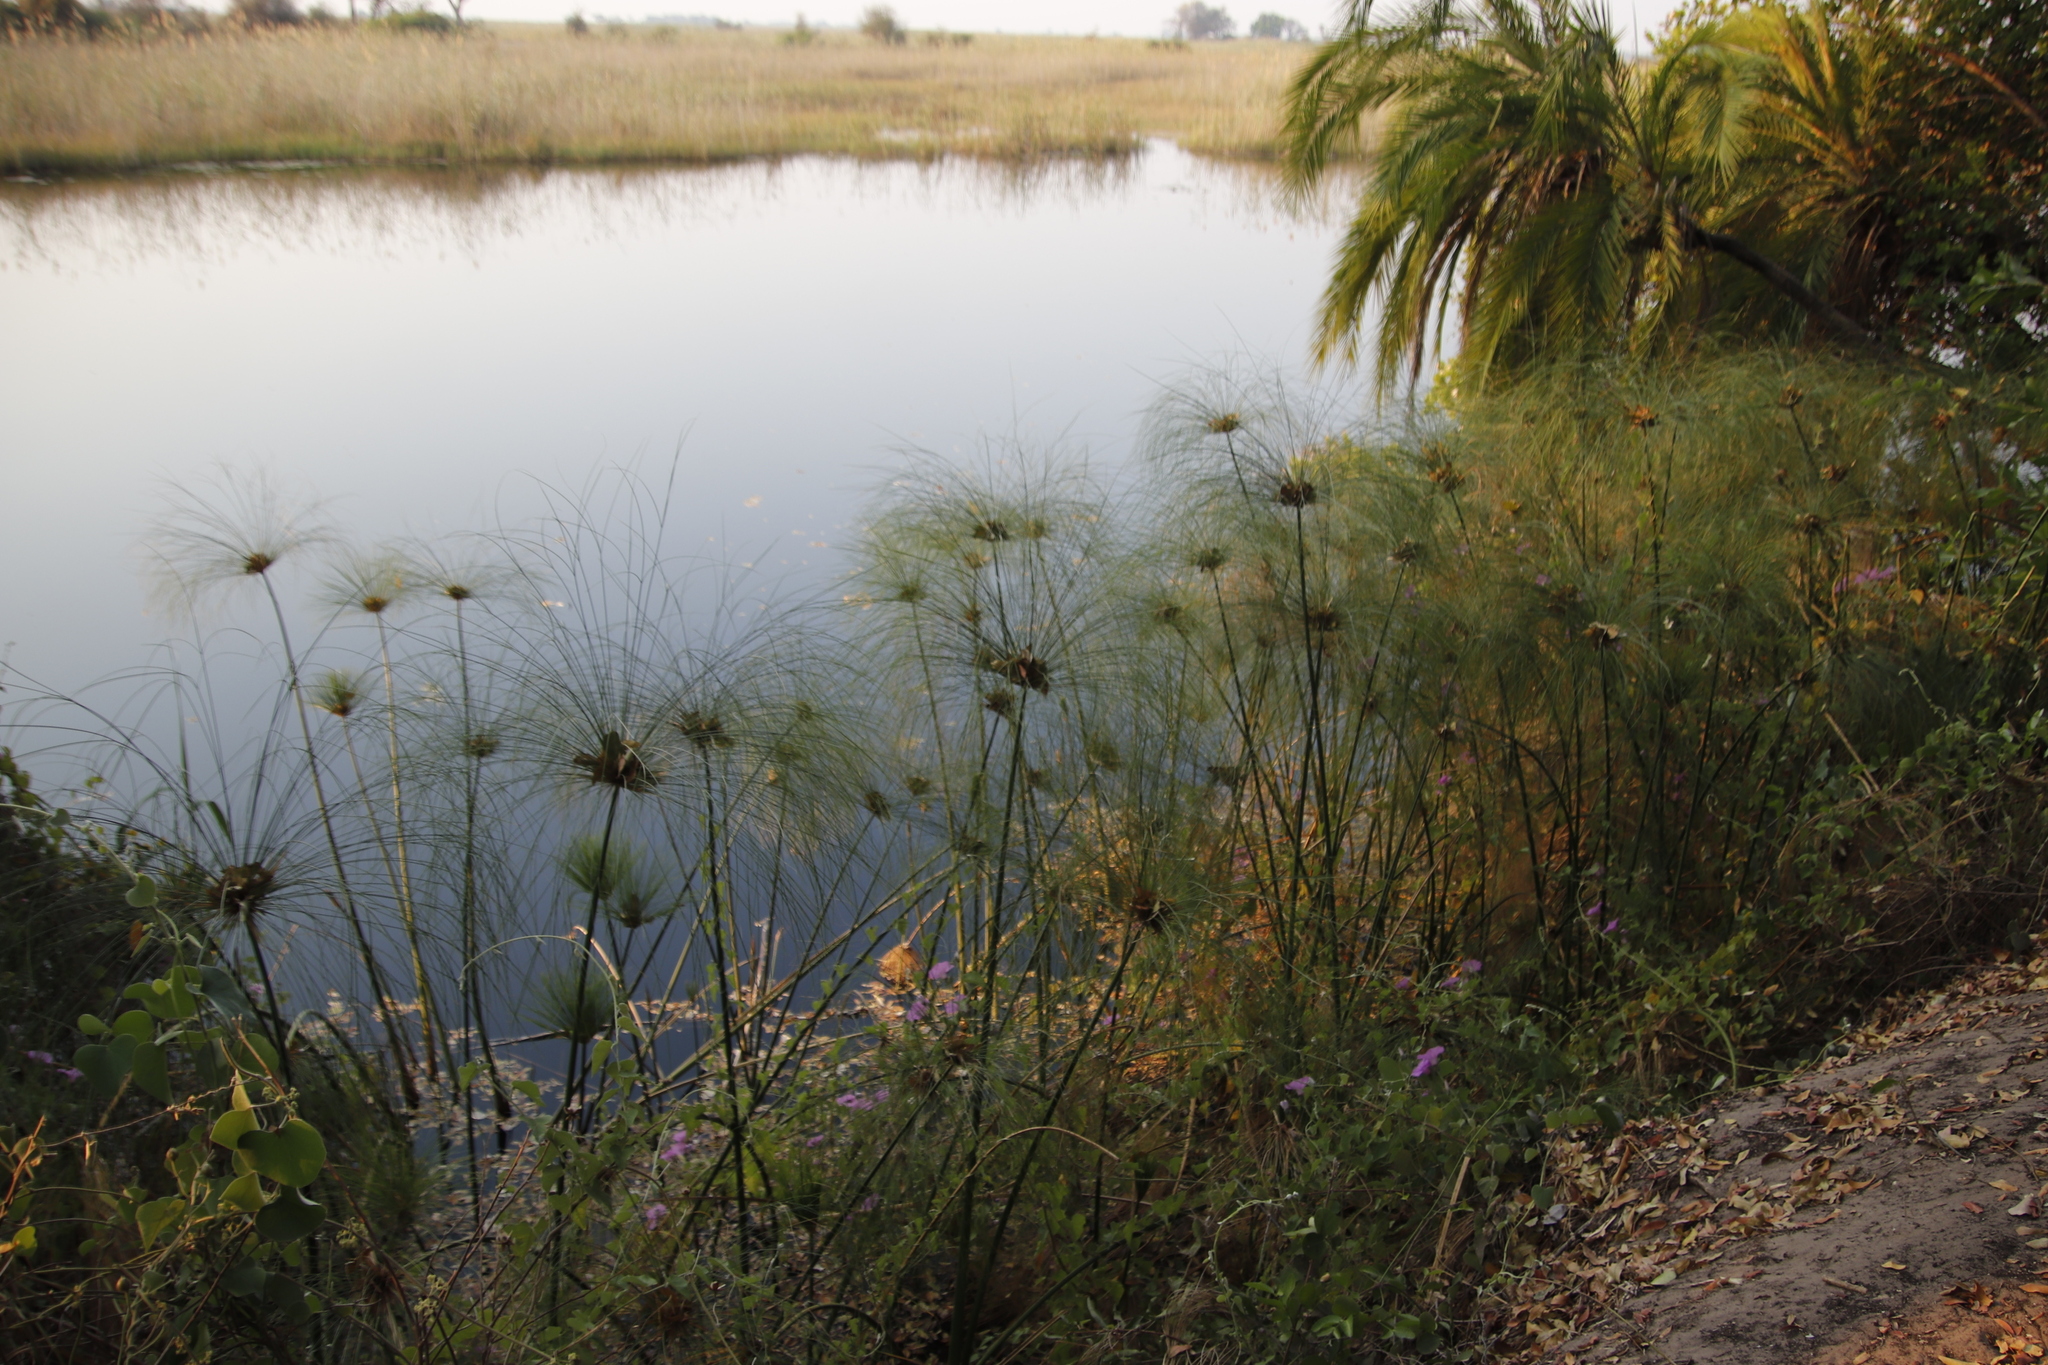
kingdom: Plantae
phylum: Tracheophyta
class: Liliopsida
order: Poales
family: Cyperaceae
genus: Cyperus
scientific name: Cyperus papyrus
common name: Papyrus
